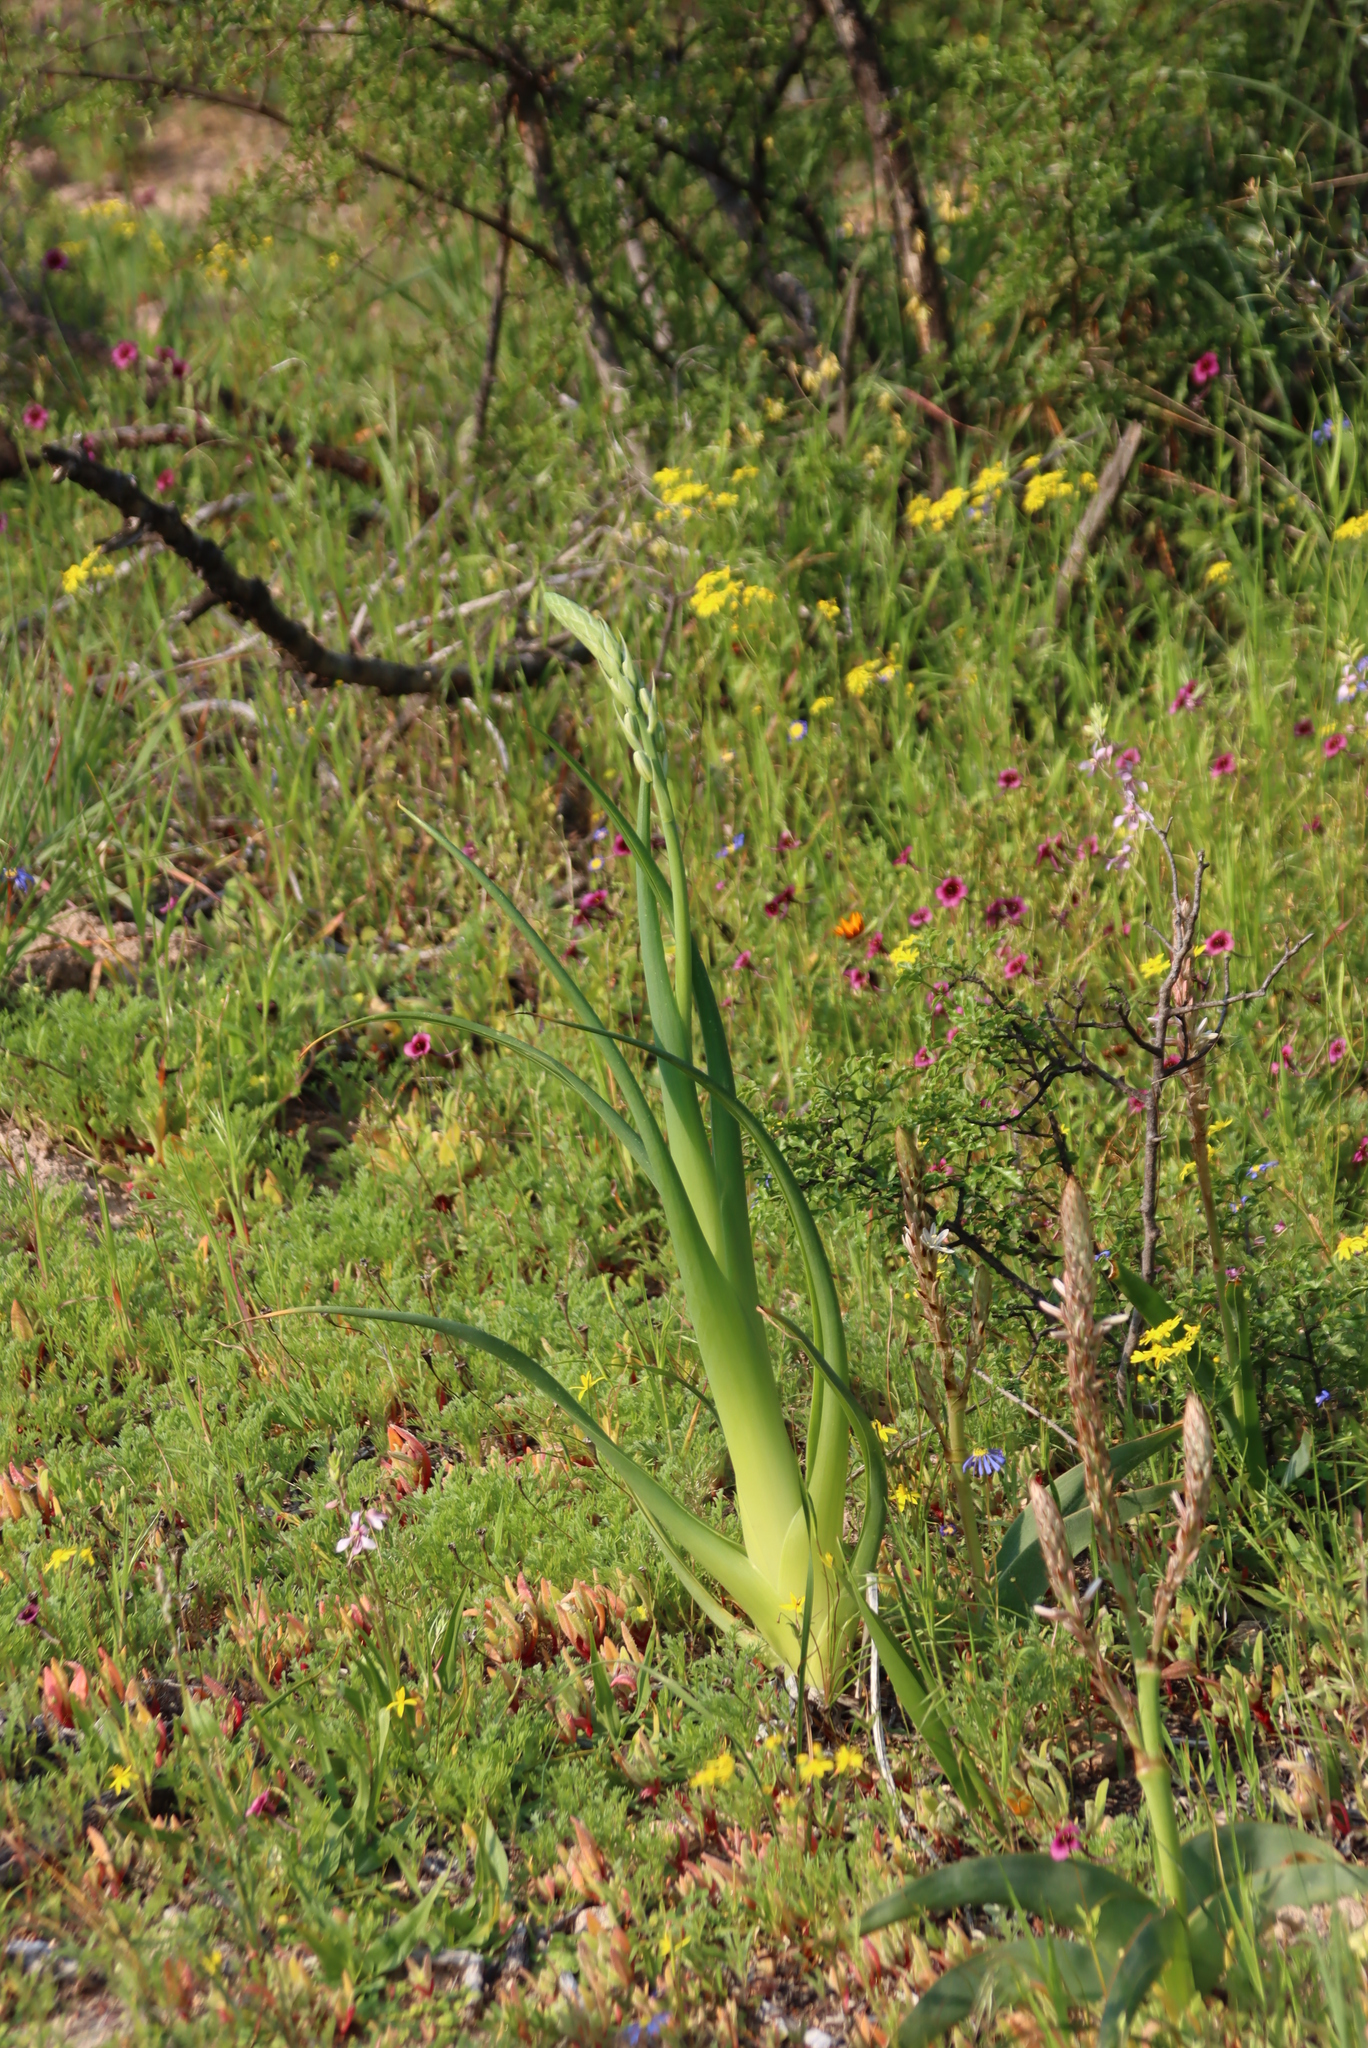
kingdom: Plantae
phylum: Tracheophyta
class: Liliopsida
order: Asparagales
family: Asparagaceae
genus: Albuca
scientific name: Albuca canadensis
